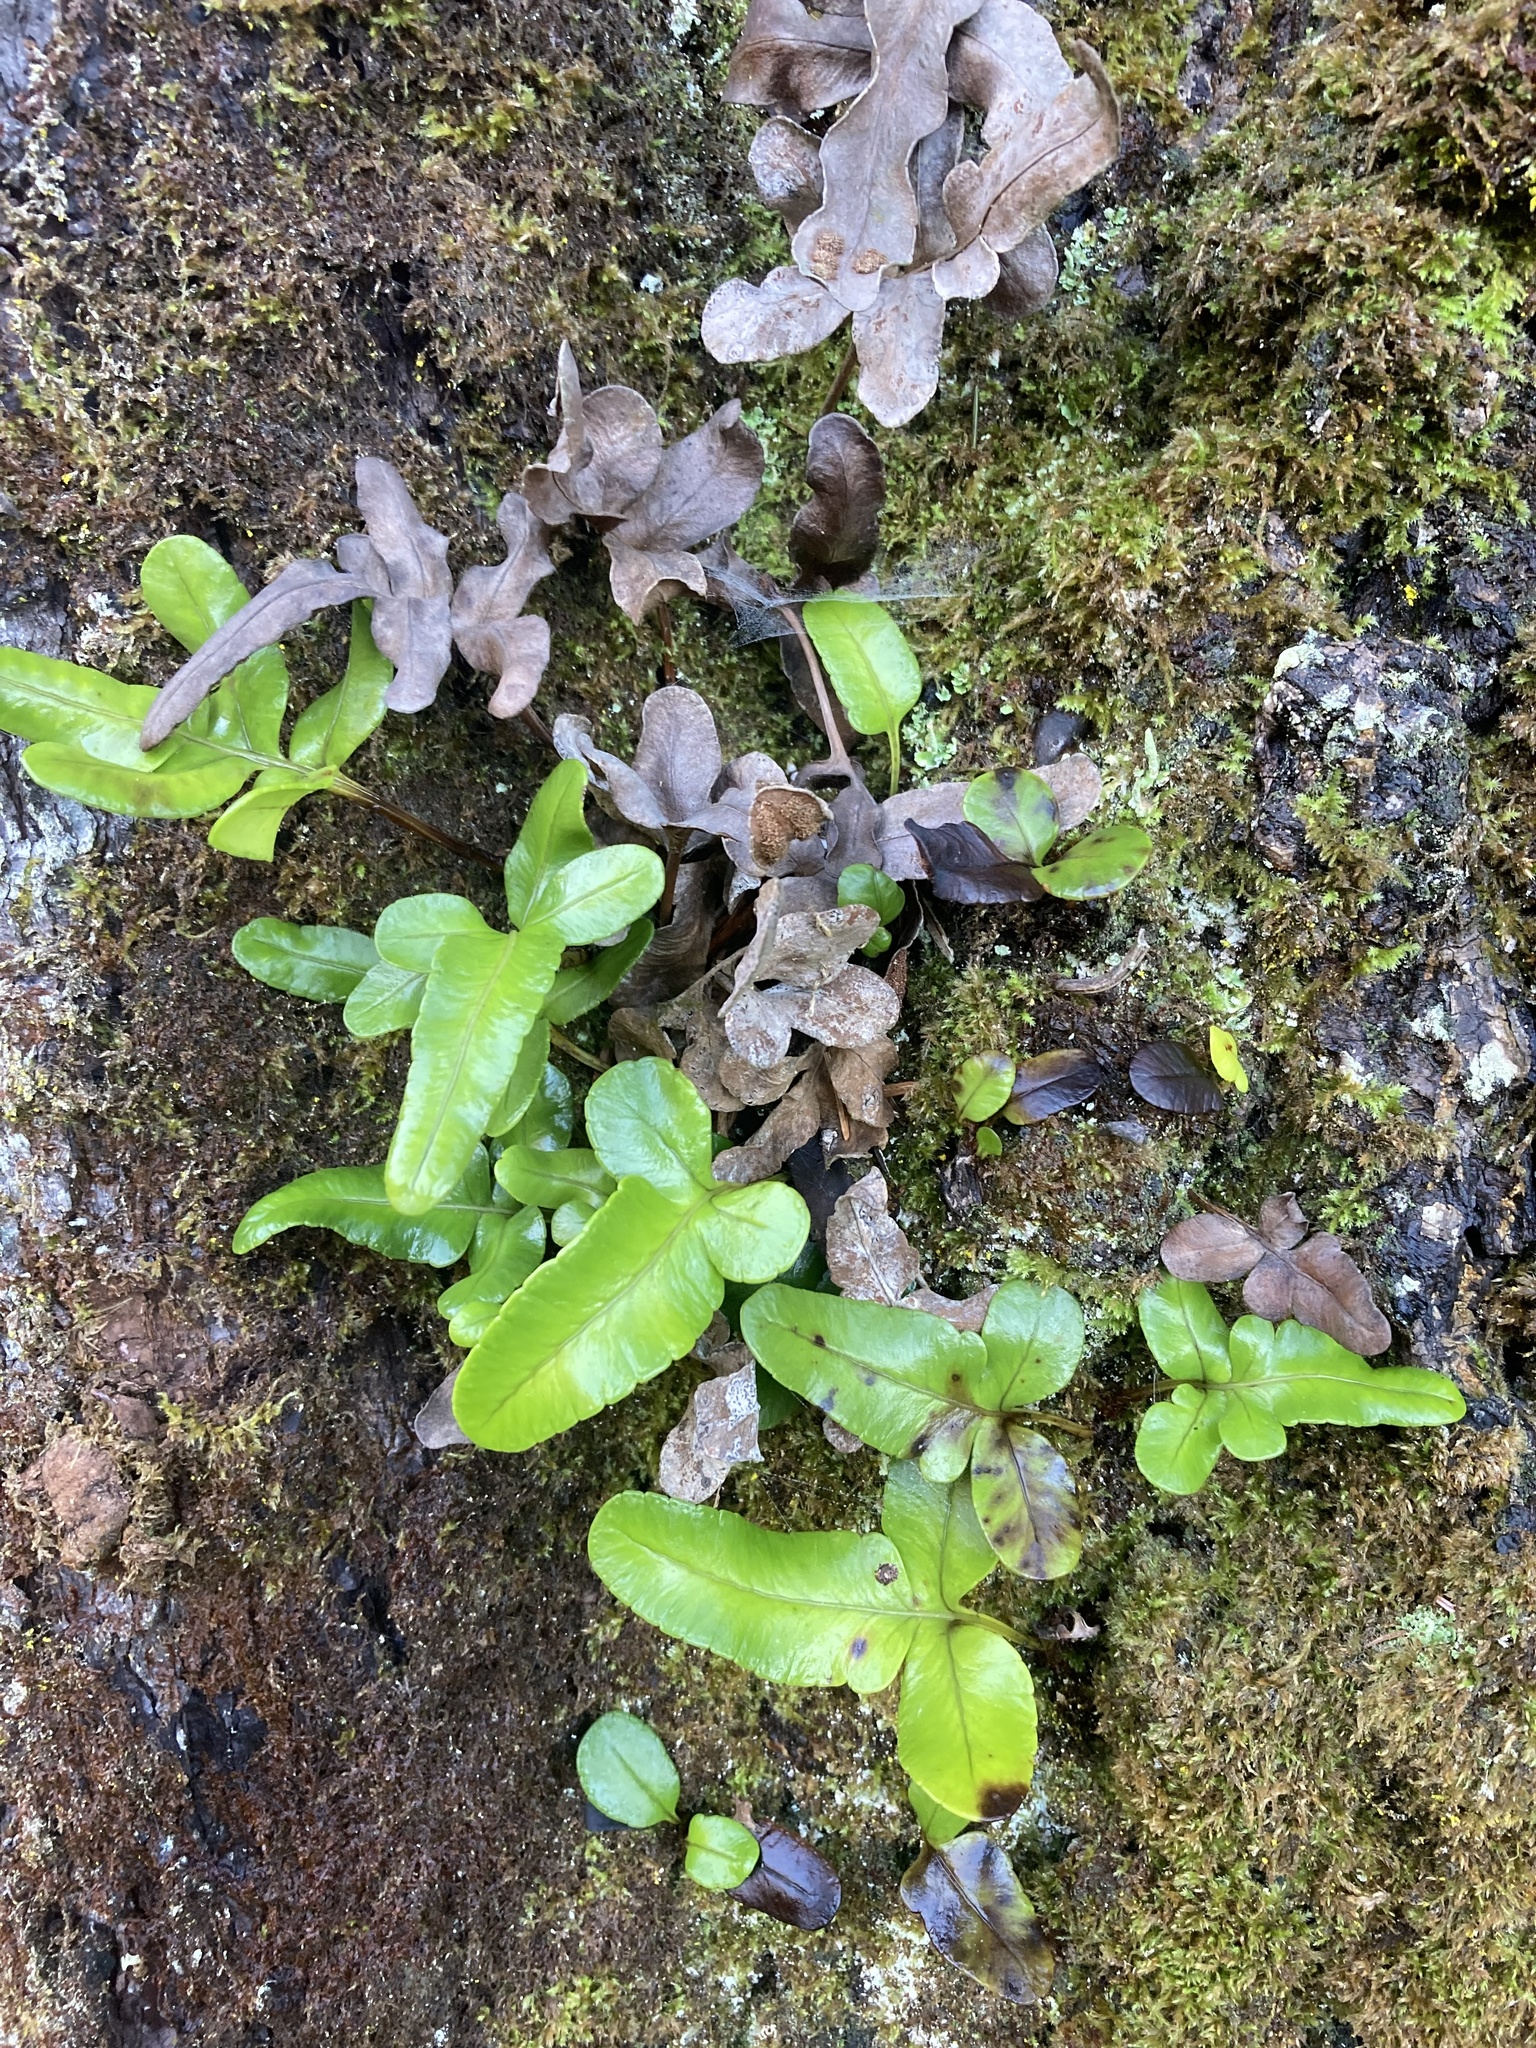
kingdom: Plantae
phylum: Tracheophyta
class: Polypodiopsida
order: Polypodiales
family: Polypodiaceae
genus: Polypodium
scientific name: Polypodium scouleri
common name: Scouler's polypody
